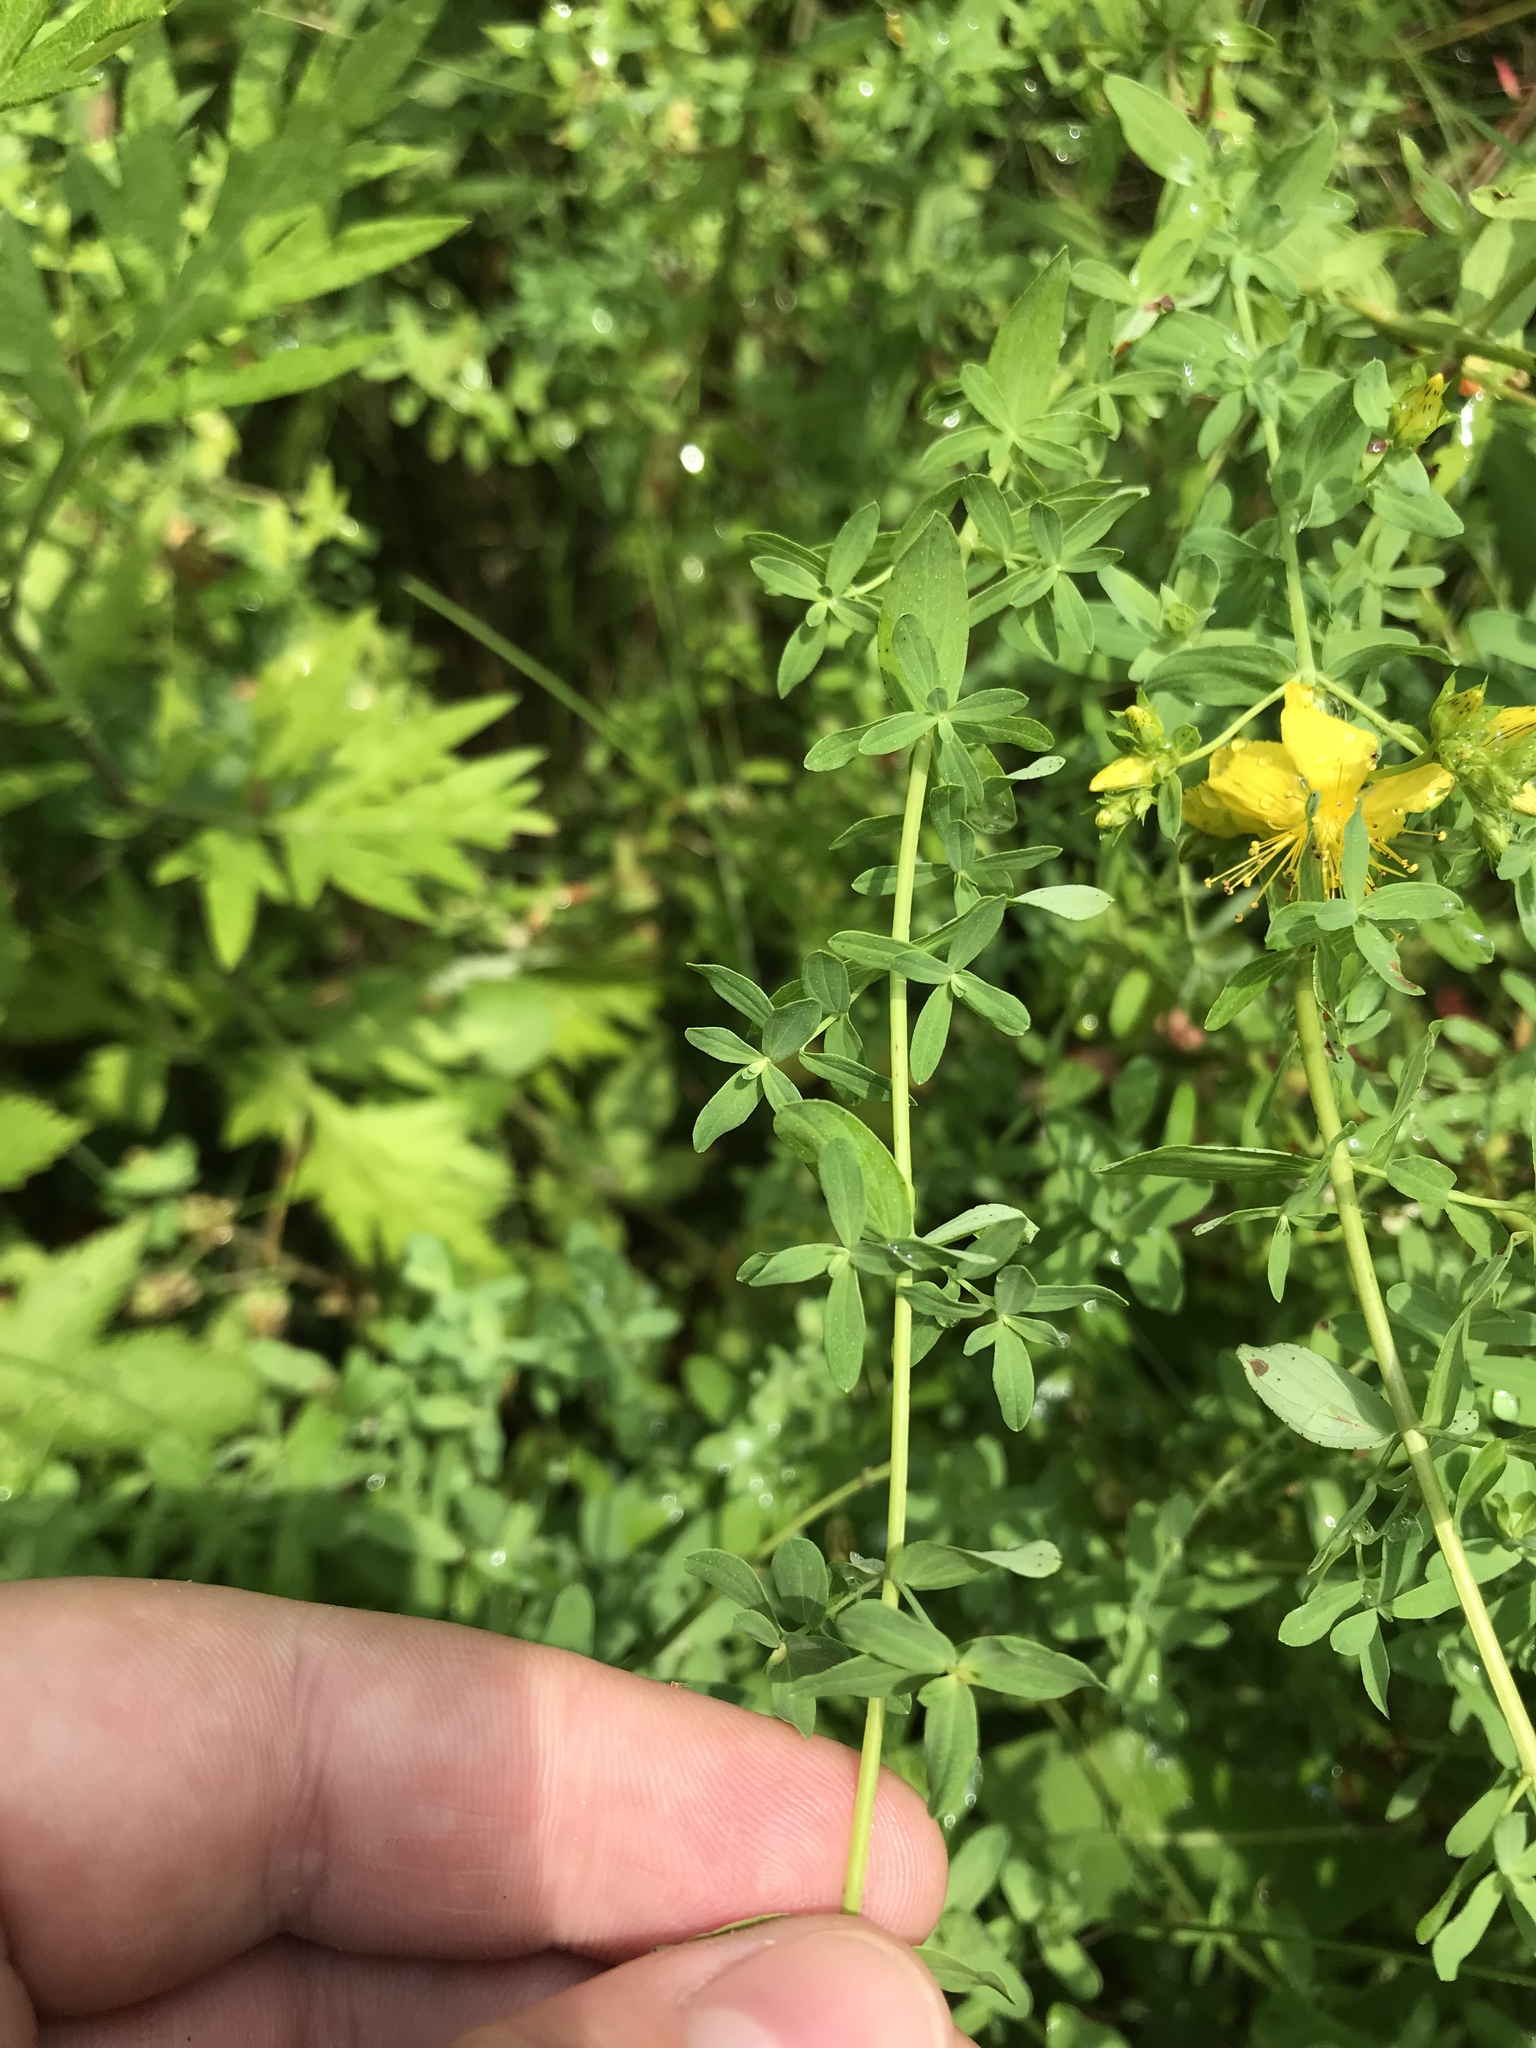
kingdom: Plantae
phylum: Tracheophyta
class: Magnoliopsida
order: Malpighiales
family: Hypericaceae
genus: Hypericum
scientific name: Hypericum perforatum
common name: Common st. johnswort
